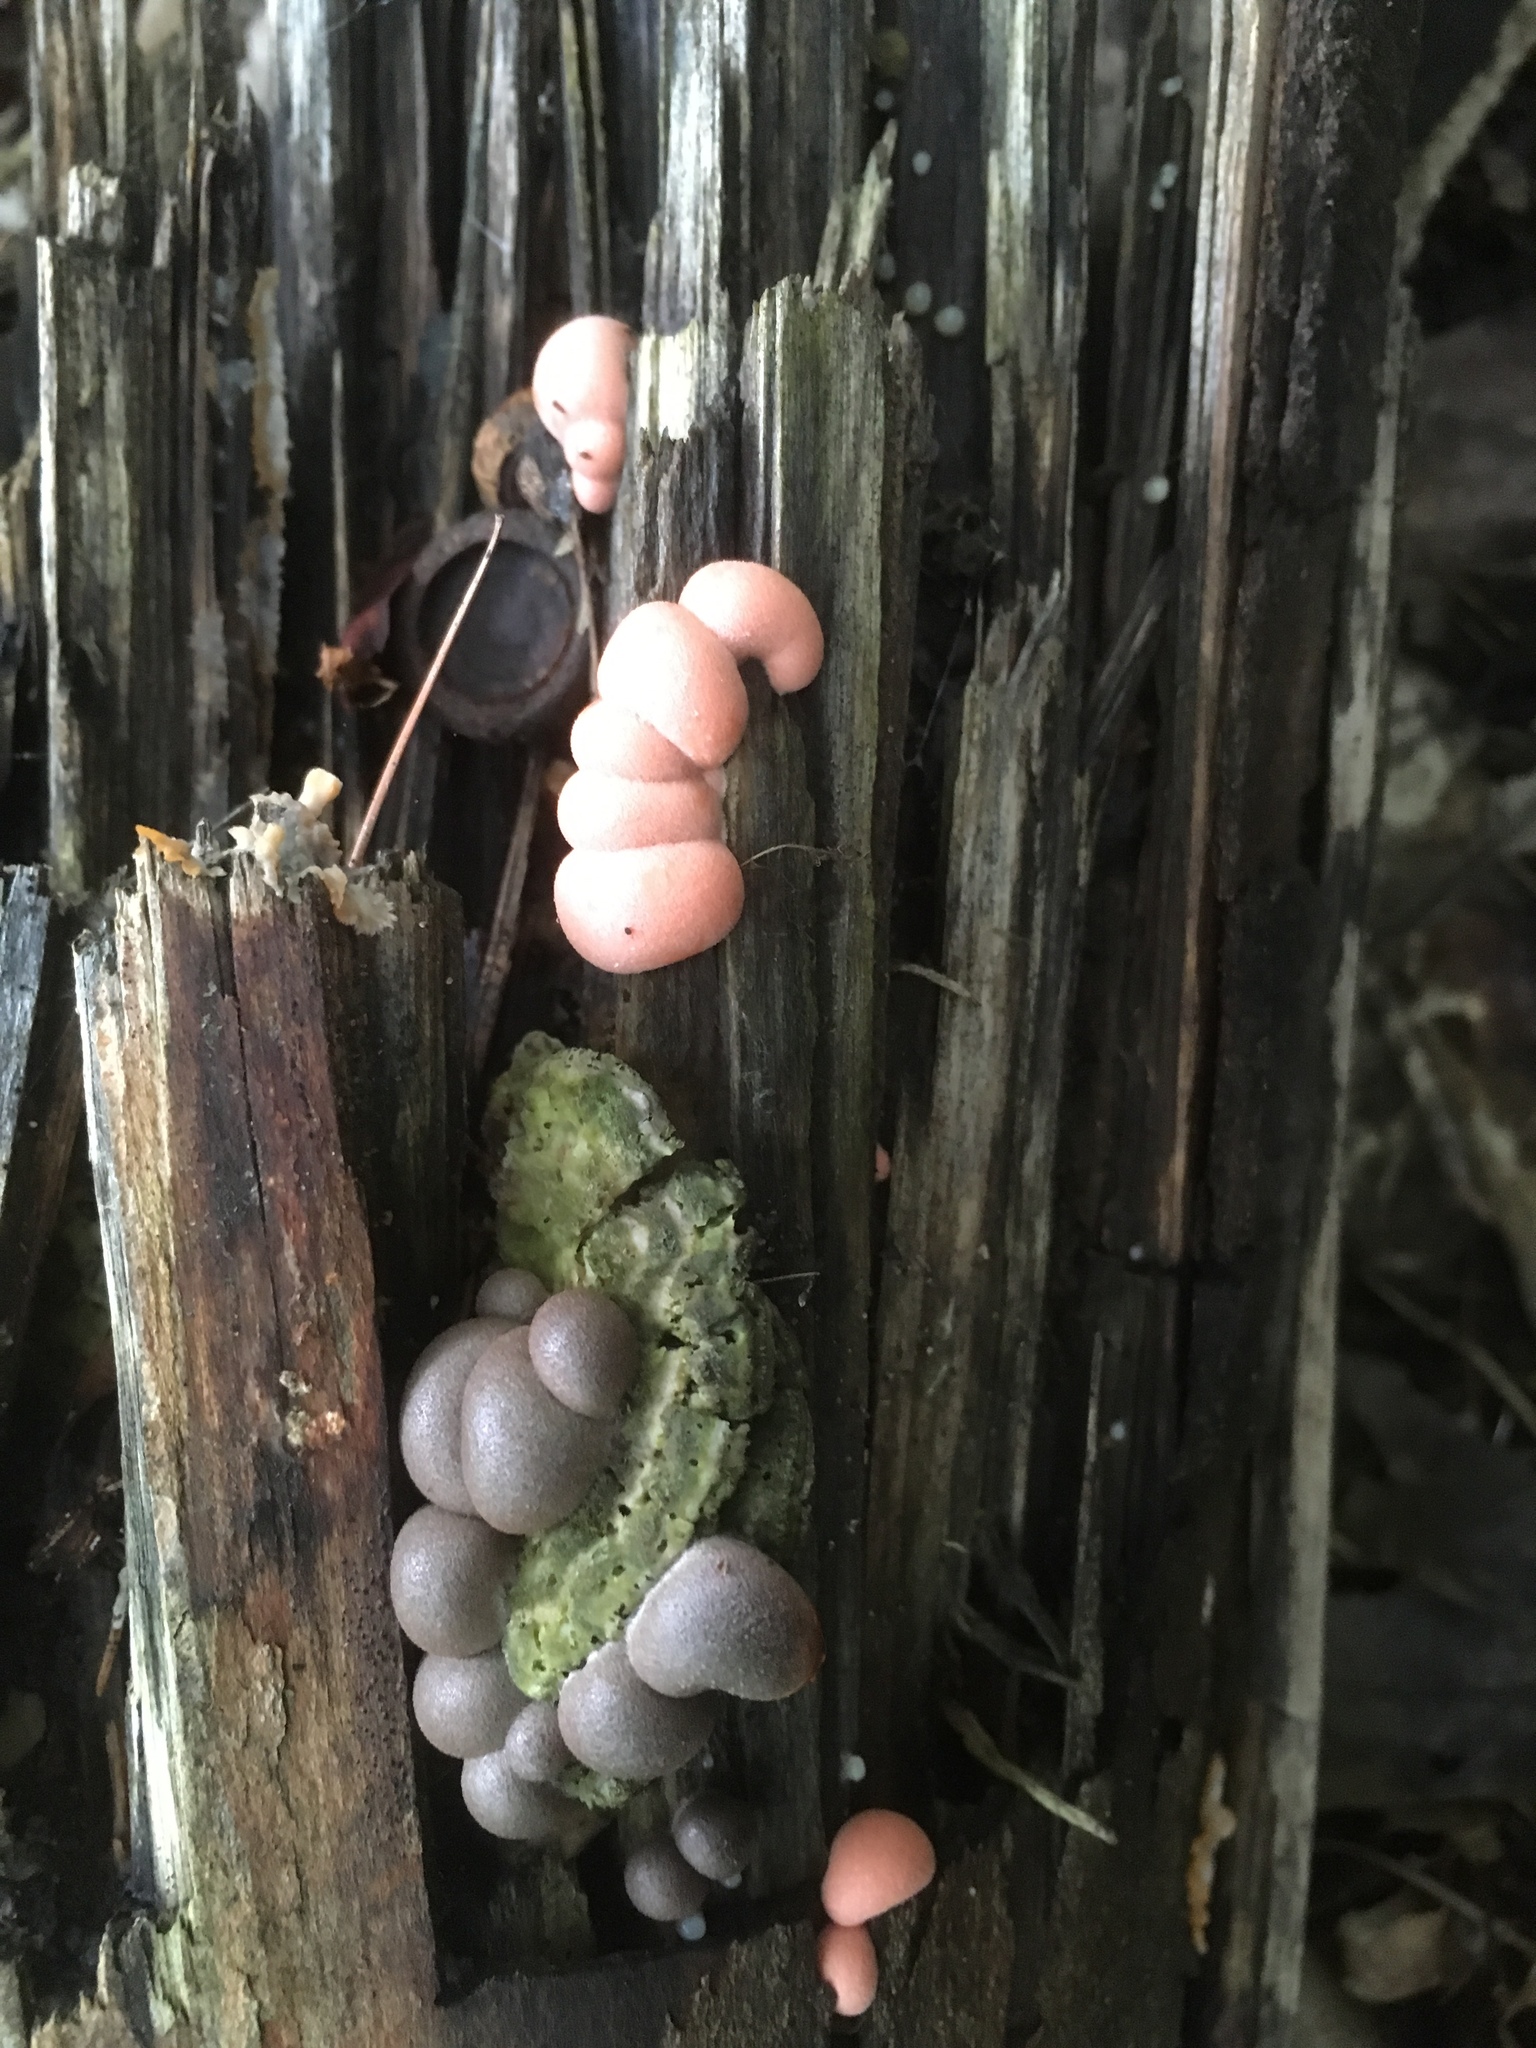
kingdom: Protozoa
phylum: Mycetozoa
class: Myxomycetes
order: Cribrariales
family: Tubiferaceae
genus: Lycogala
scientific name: Lycogala epidendrum
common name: Wolf's milk
